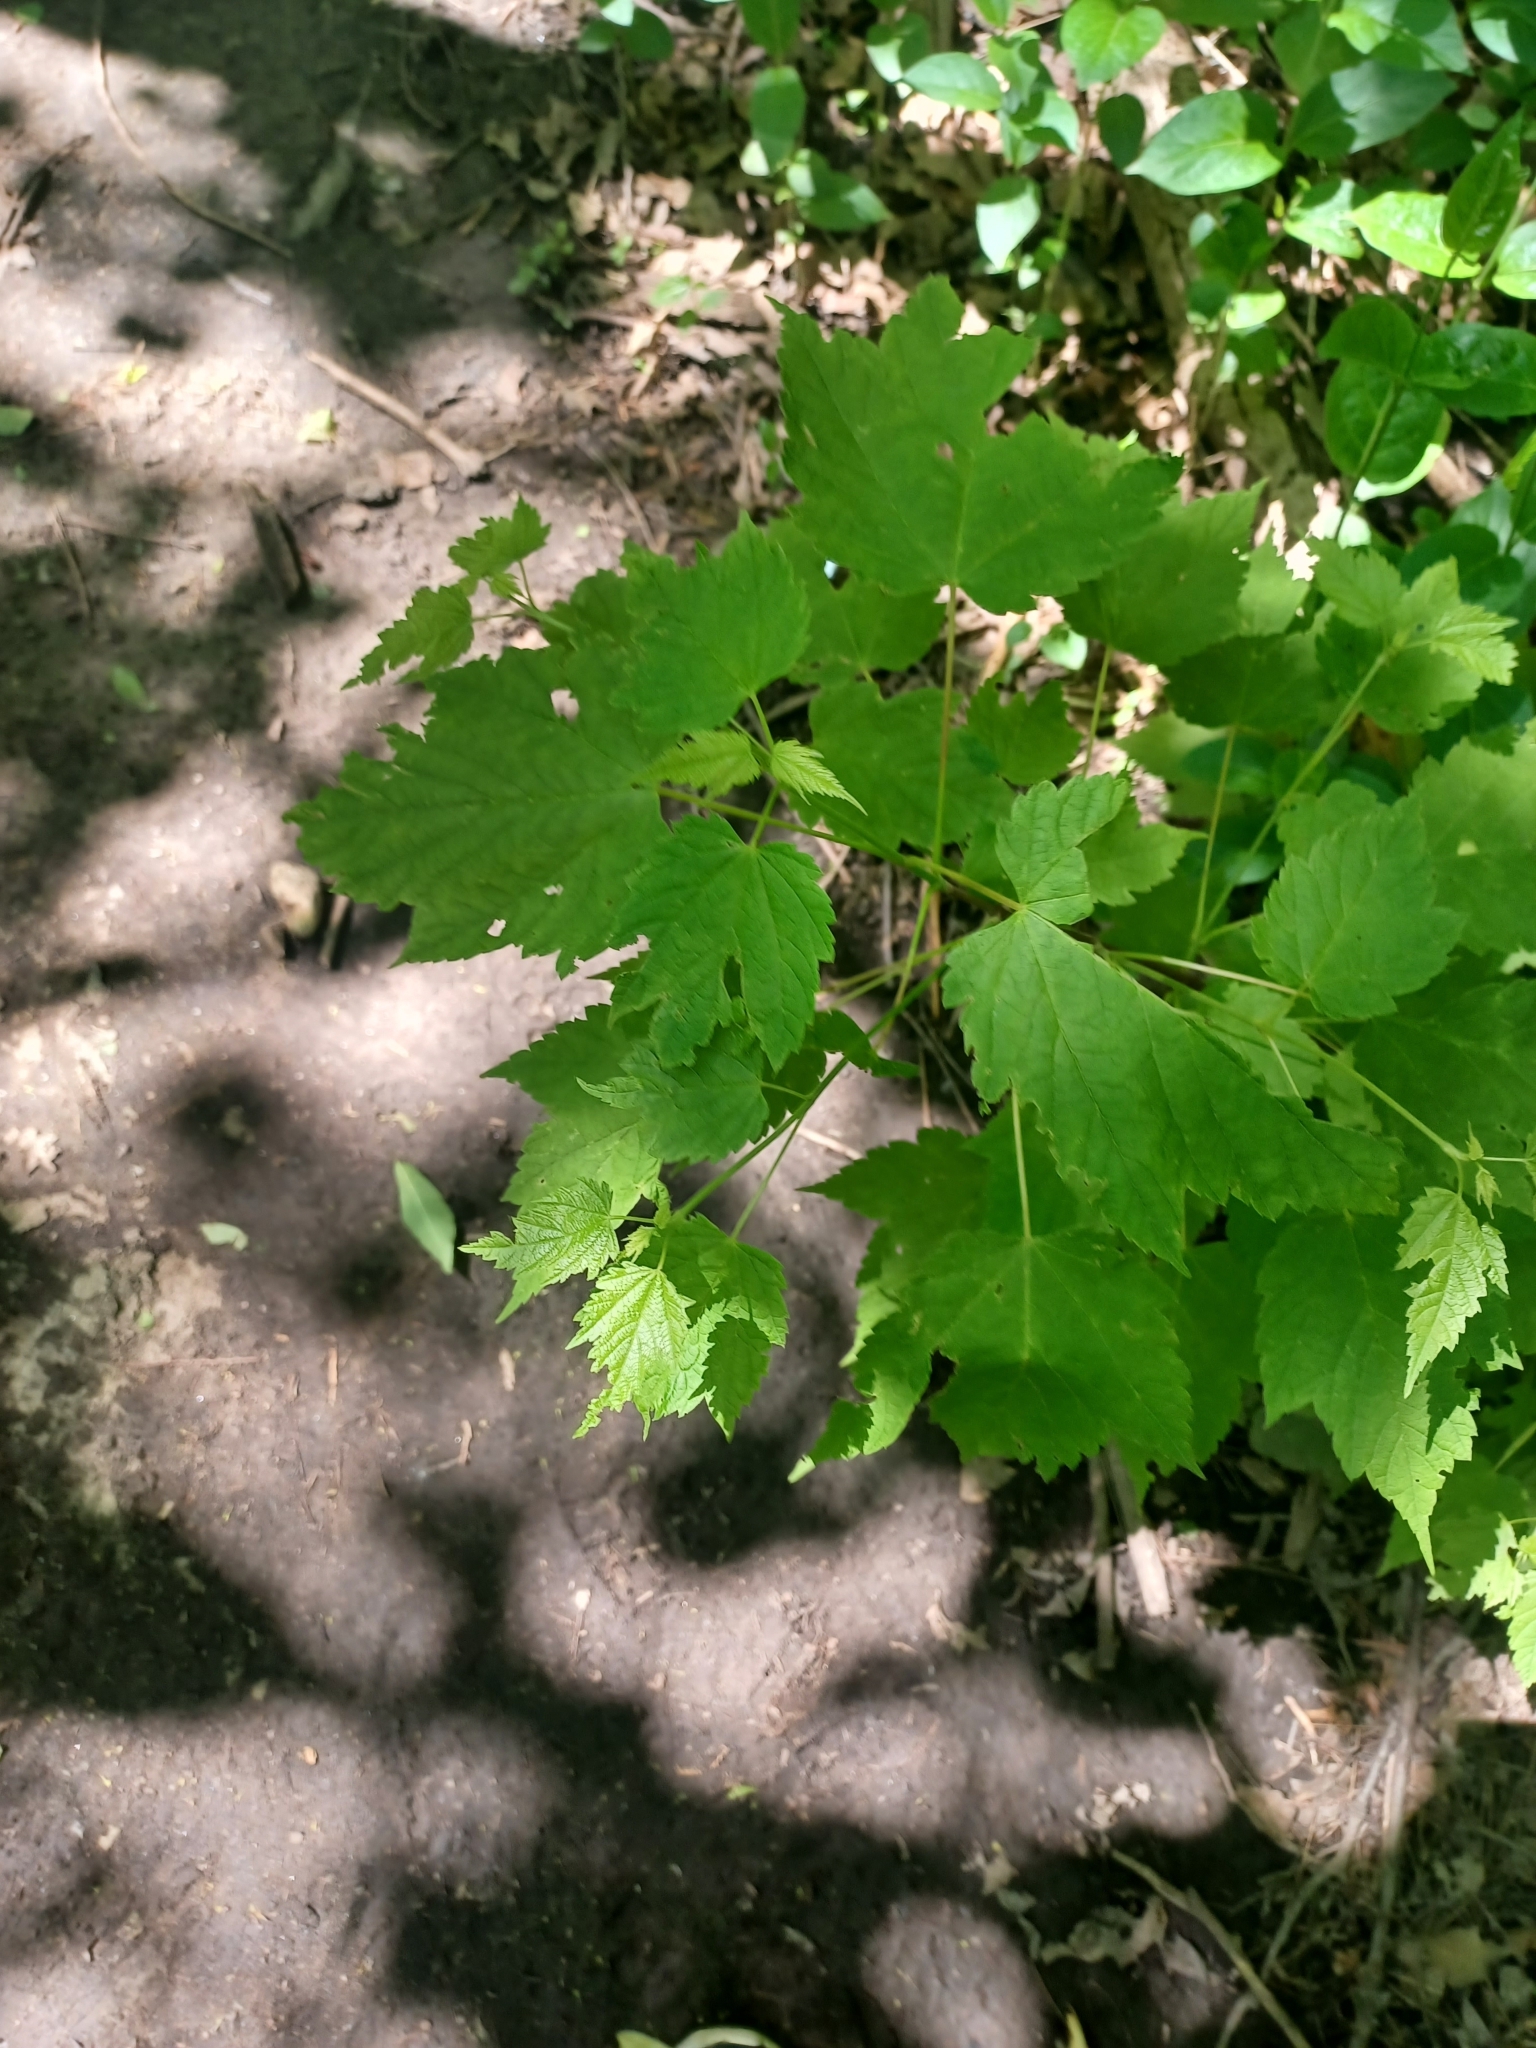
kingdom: Plantae
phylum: Tracheophyta
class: Magnoliopsida
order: Sapindales
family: Sapindaceae
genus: Acer
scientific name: Acer spicatum
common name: Mountain maple
